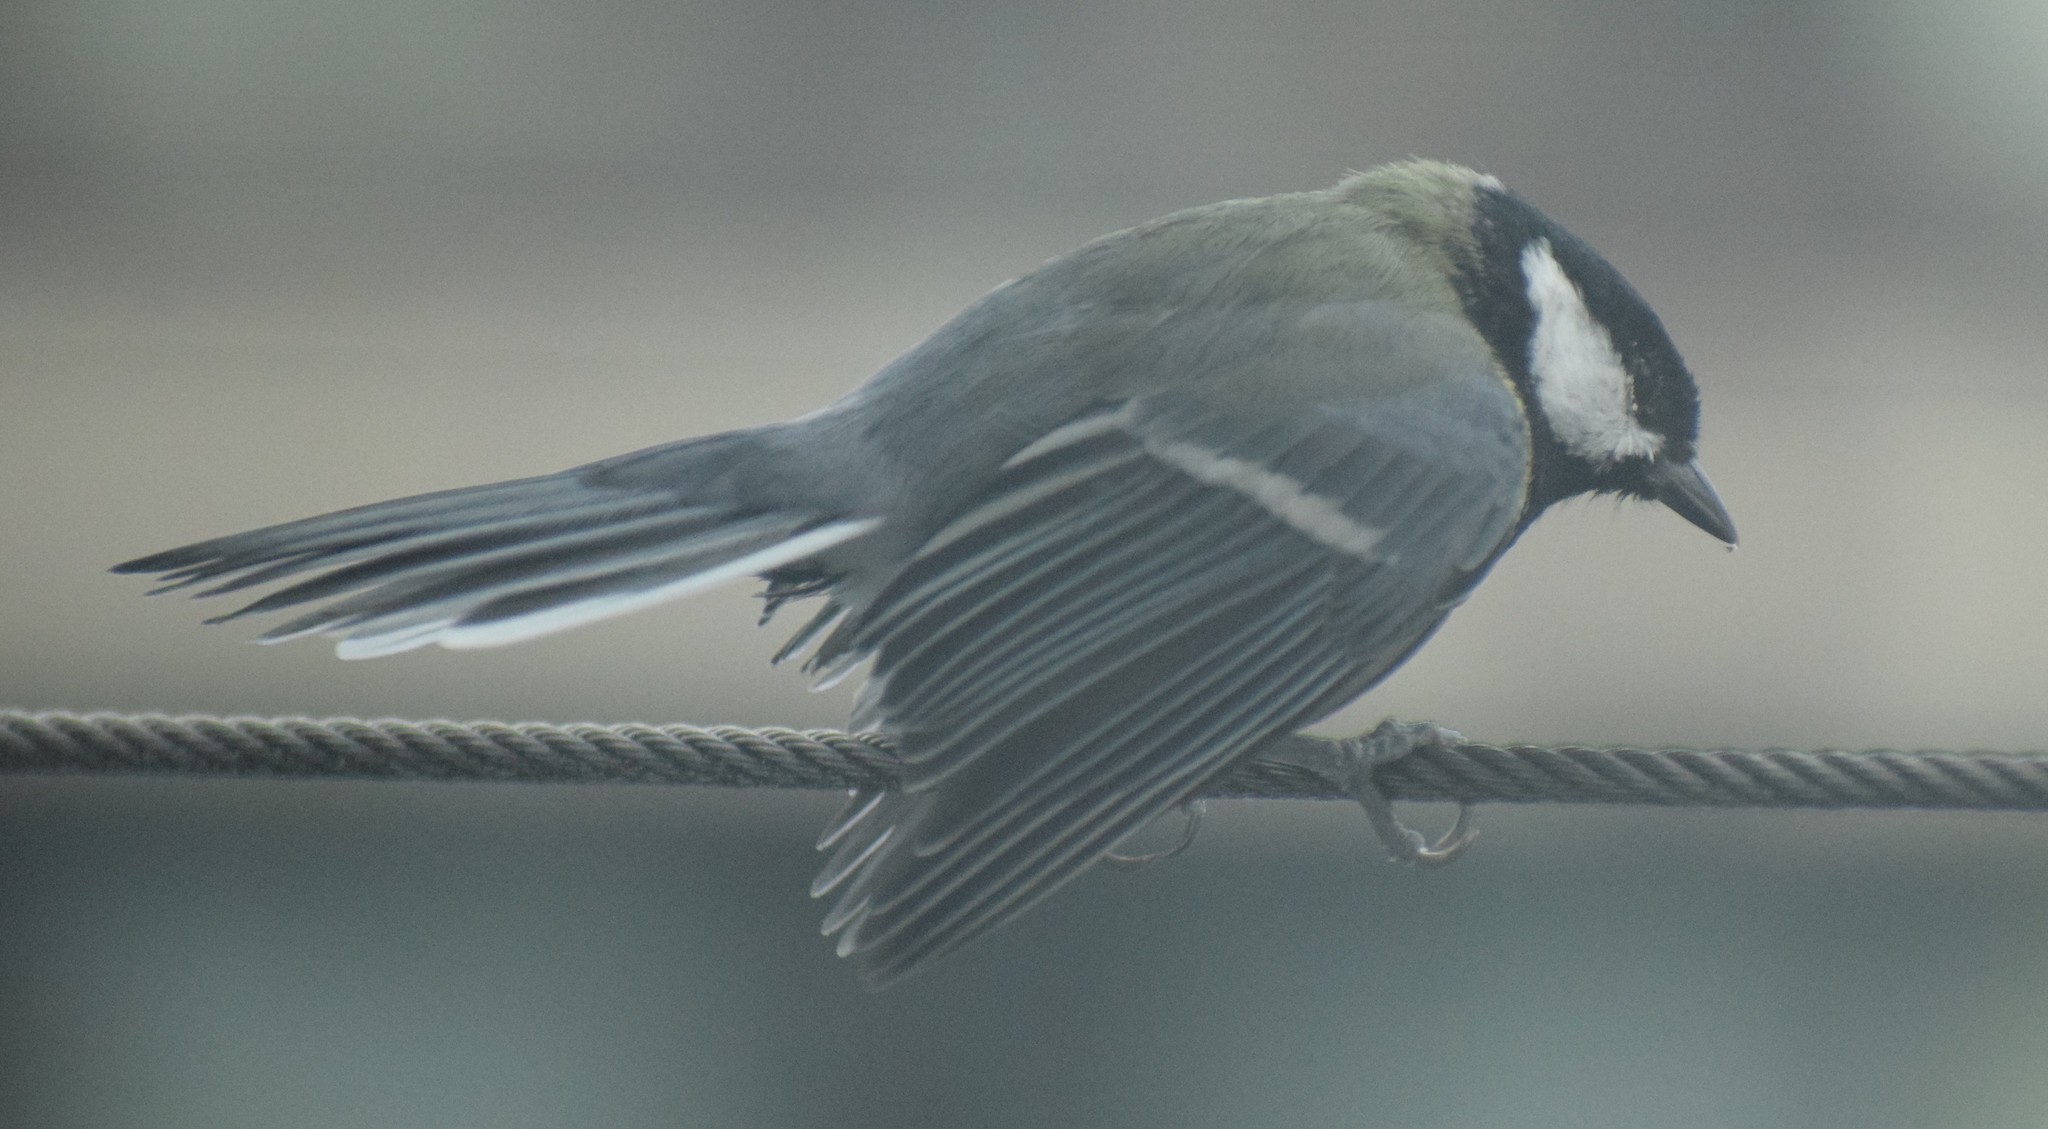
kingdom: Animalia
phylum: Chordata
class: Aves
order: Passeriformes
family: Paridae
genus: Parus
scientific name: Parus major
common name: Great tit
